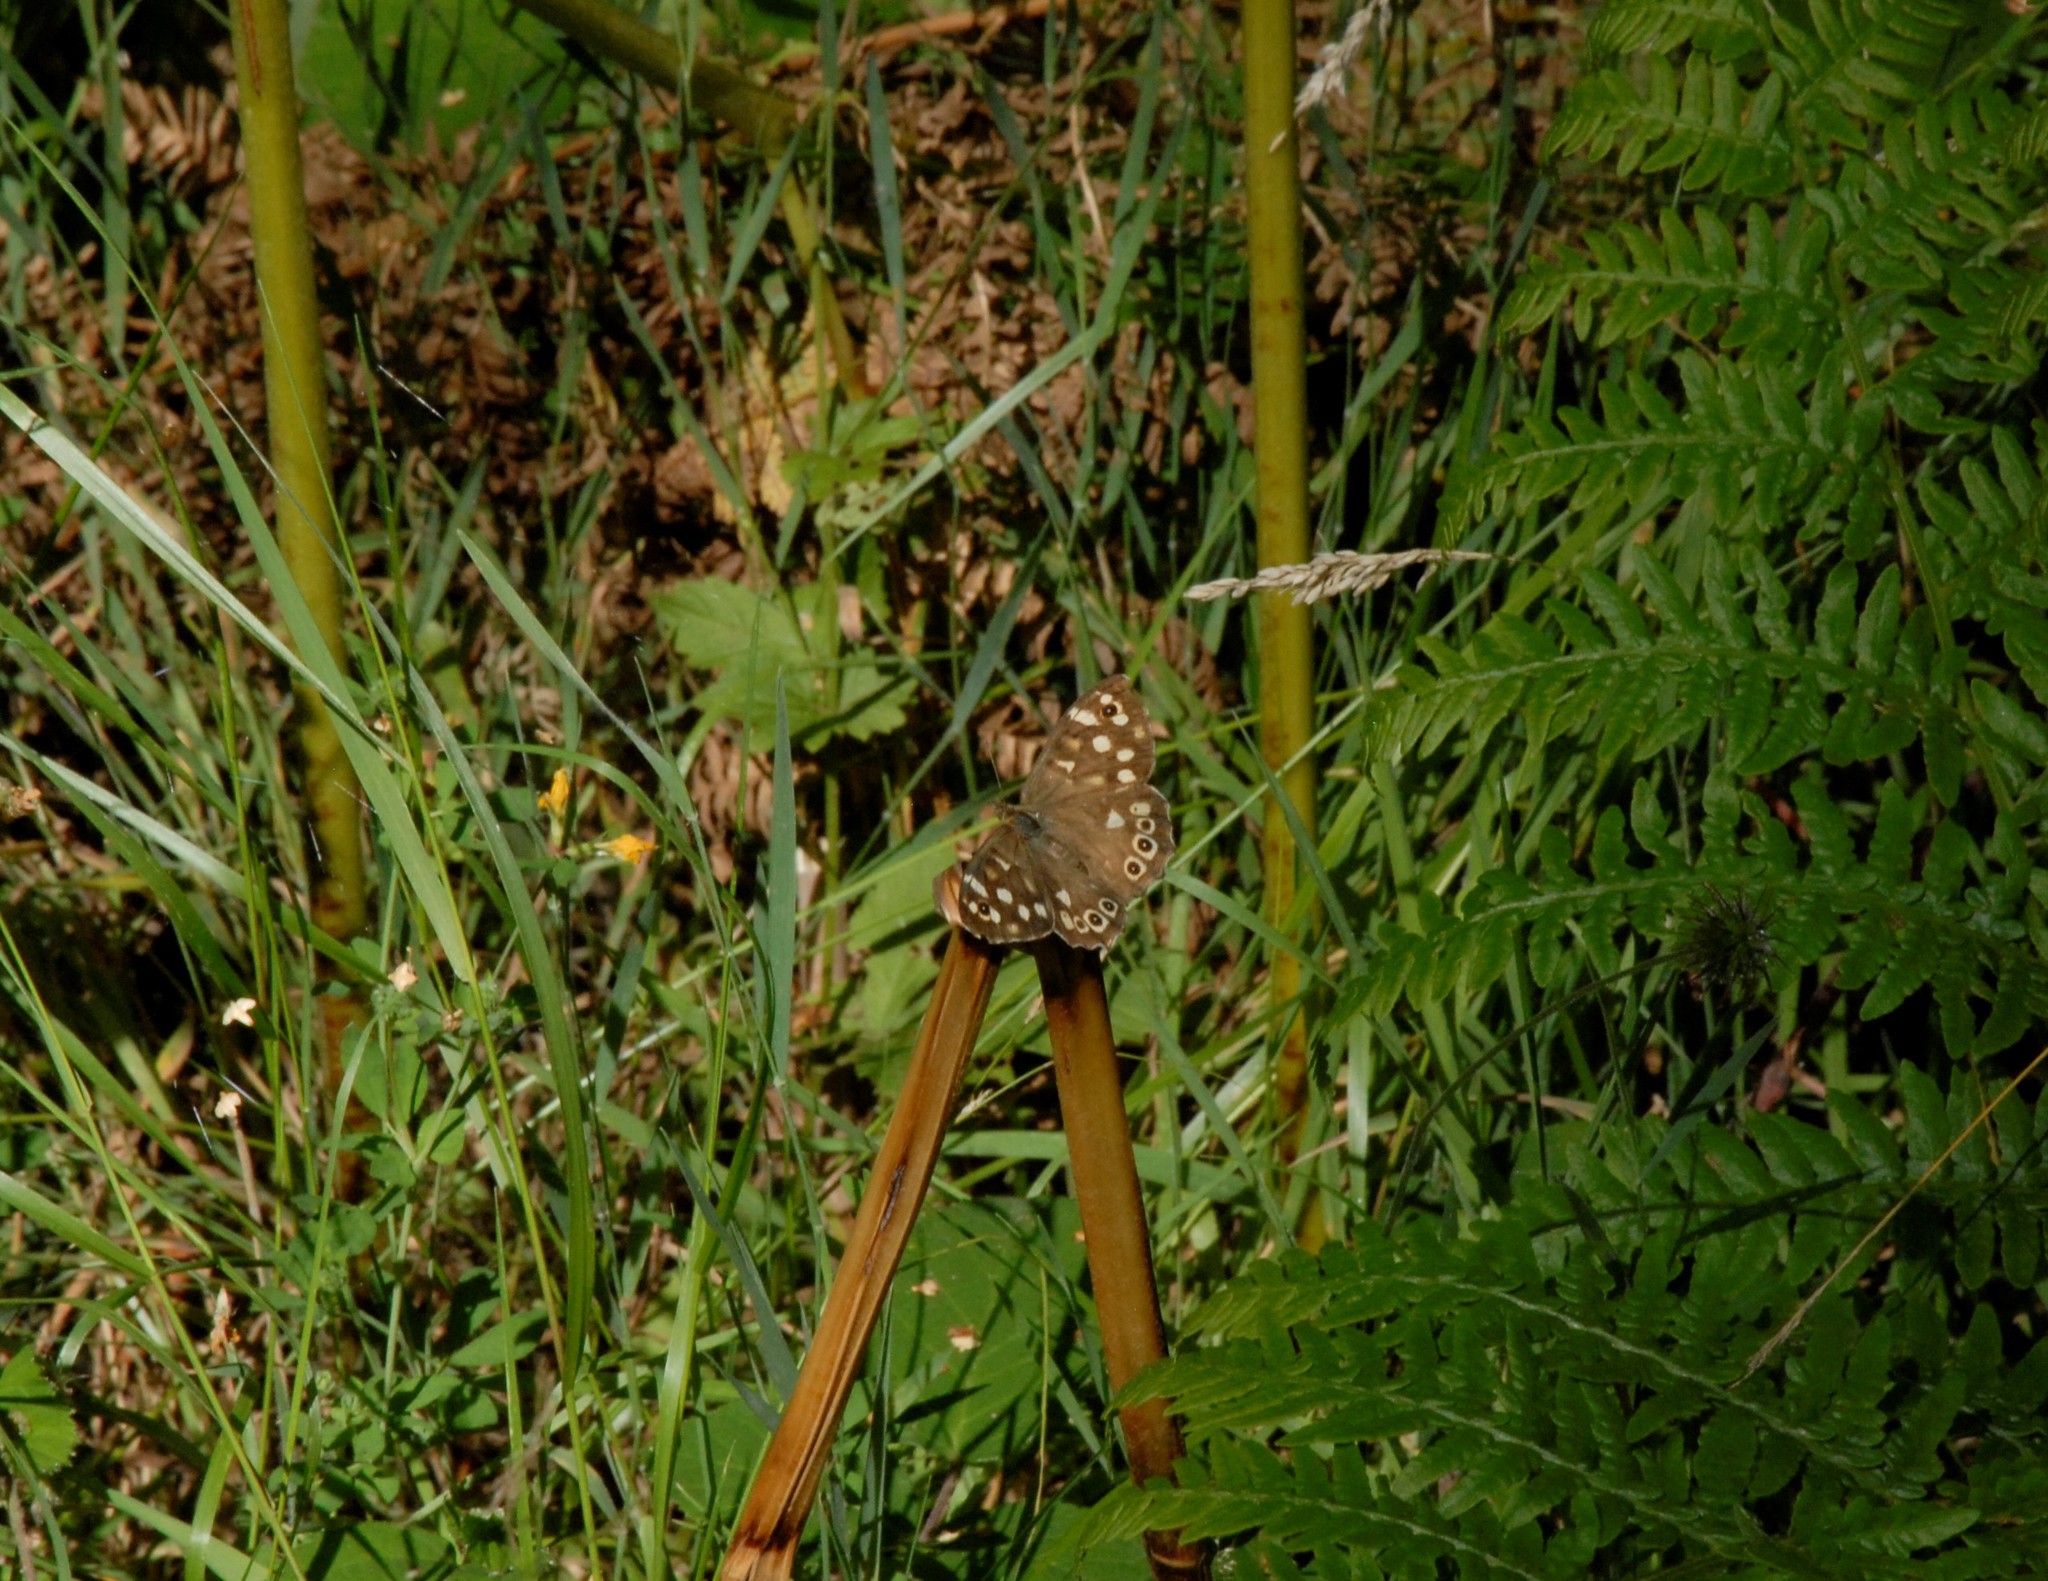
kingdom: Animalia
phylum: Arthropoda
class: Insecta
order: Lepidoptera
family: Nymphalidae
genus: Pararge
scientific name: Pararge aegeria
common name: Speckled wood
